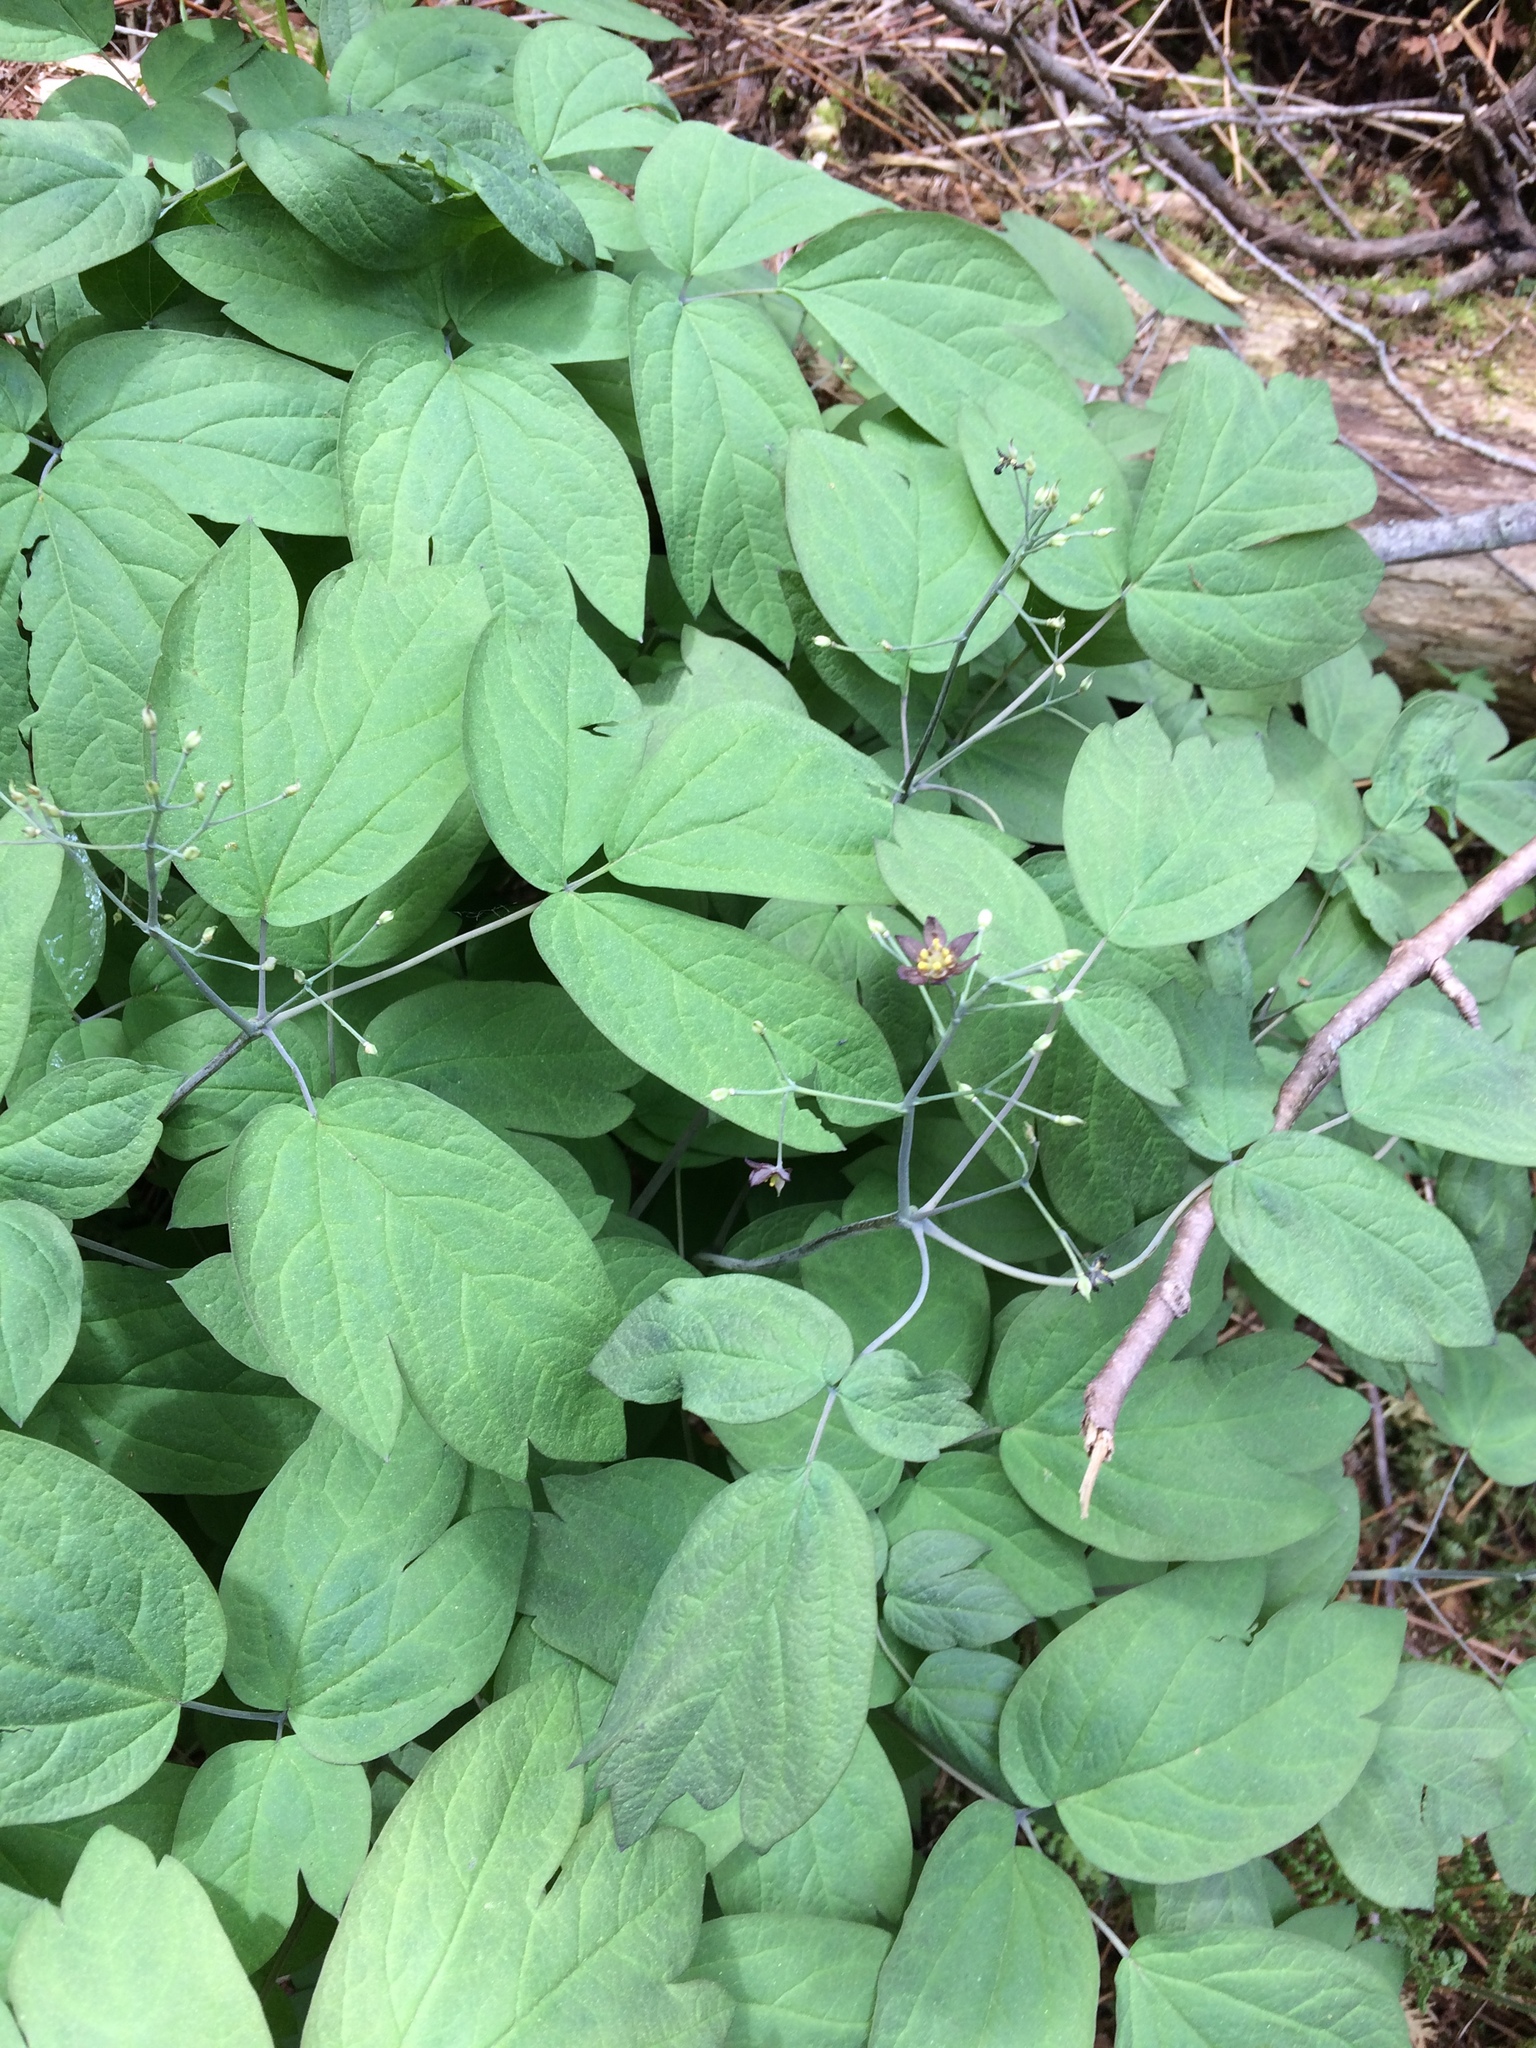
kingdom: Plantae
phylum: Tracheophyta
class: Magnoliopsida
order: Ranunculales
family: Berberidaceae
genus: Caulophyllum
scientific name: Caulophyllum giganteum
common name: Blue cohosh
